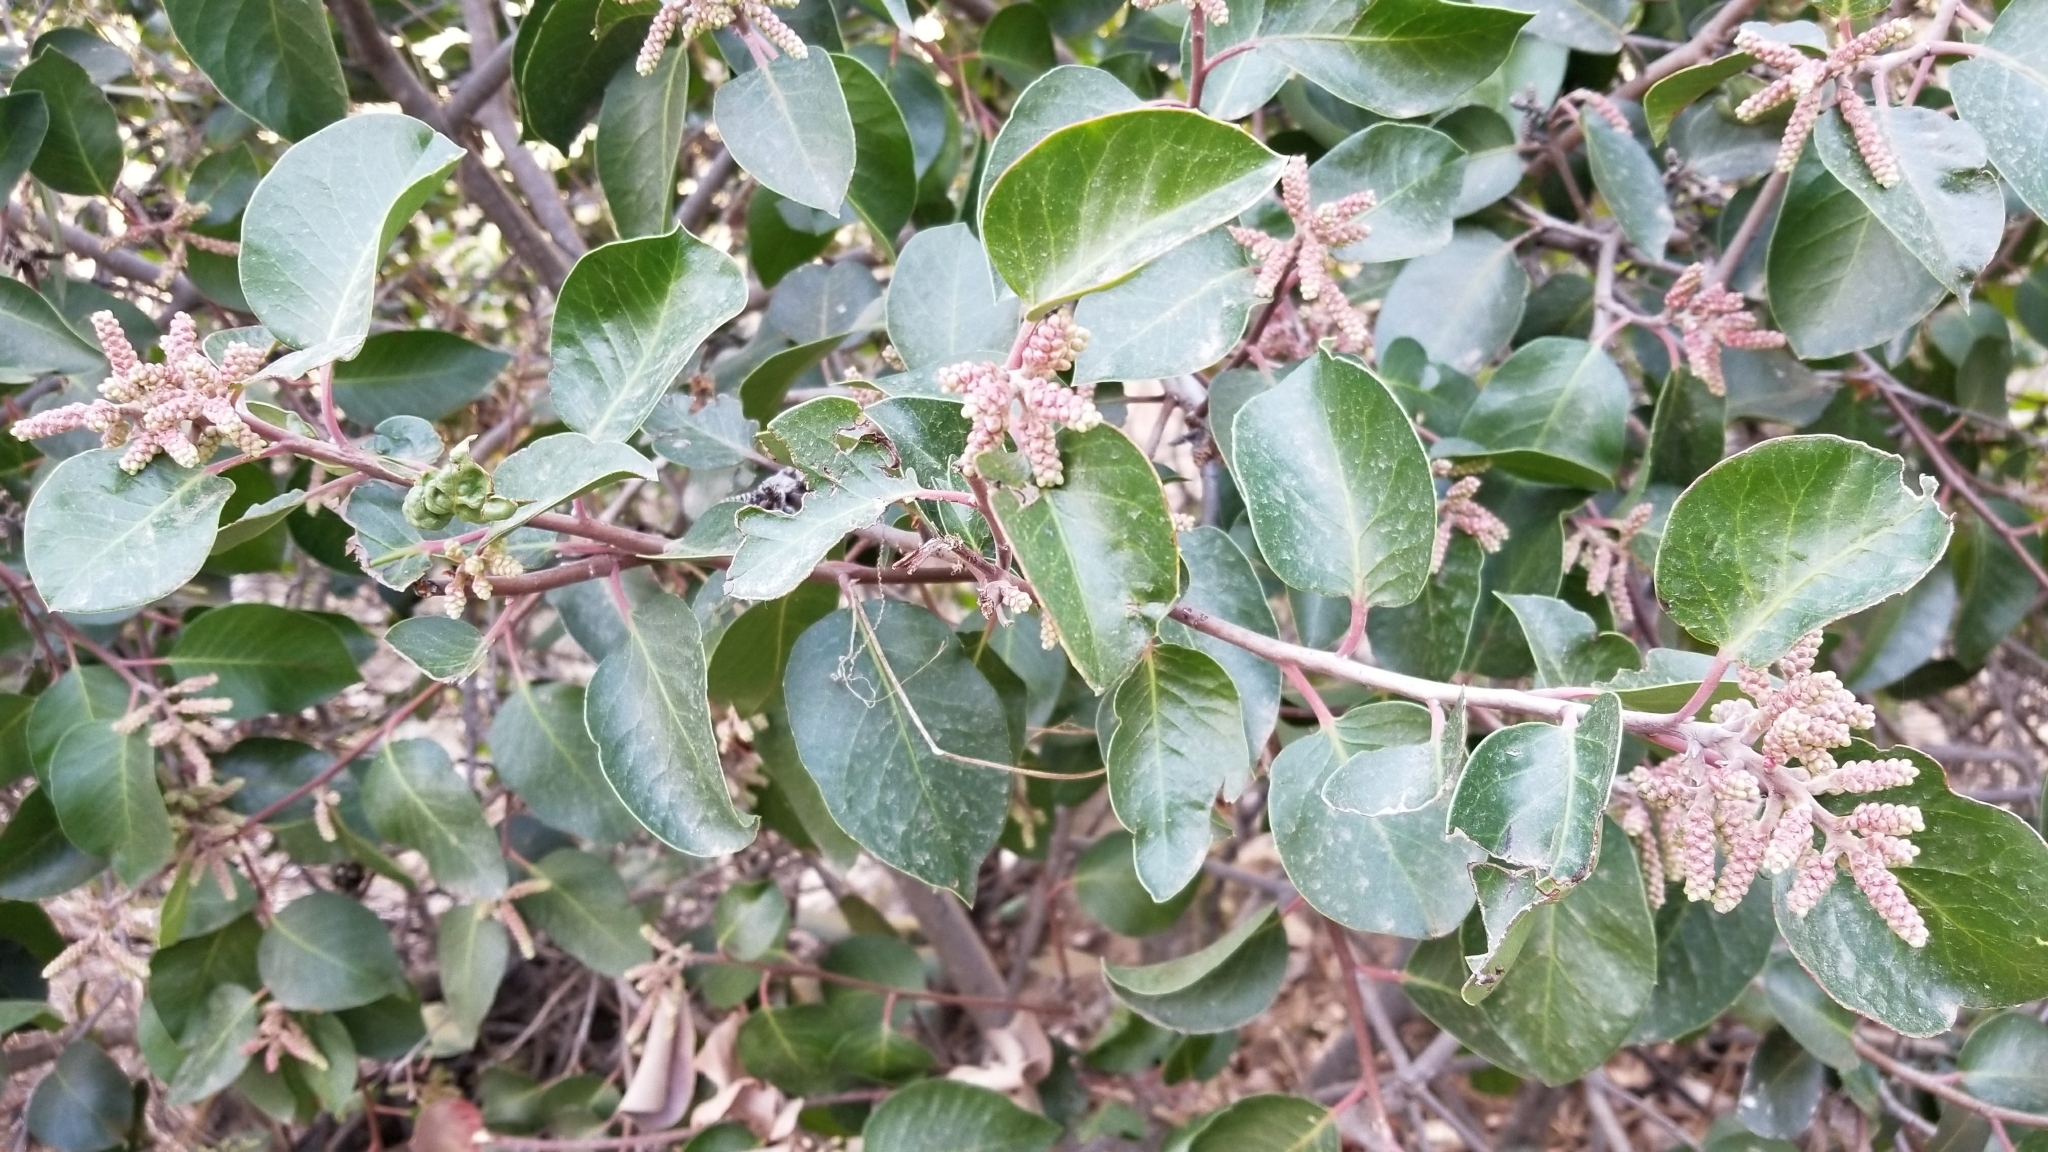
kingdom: Plantae
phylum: Tracheophyta
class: Magnoliopsida
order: Sapindales
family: Anacardiaceae
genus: Rhus
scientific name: Rhus ovata
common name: Sugar sumac
